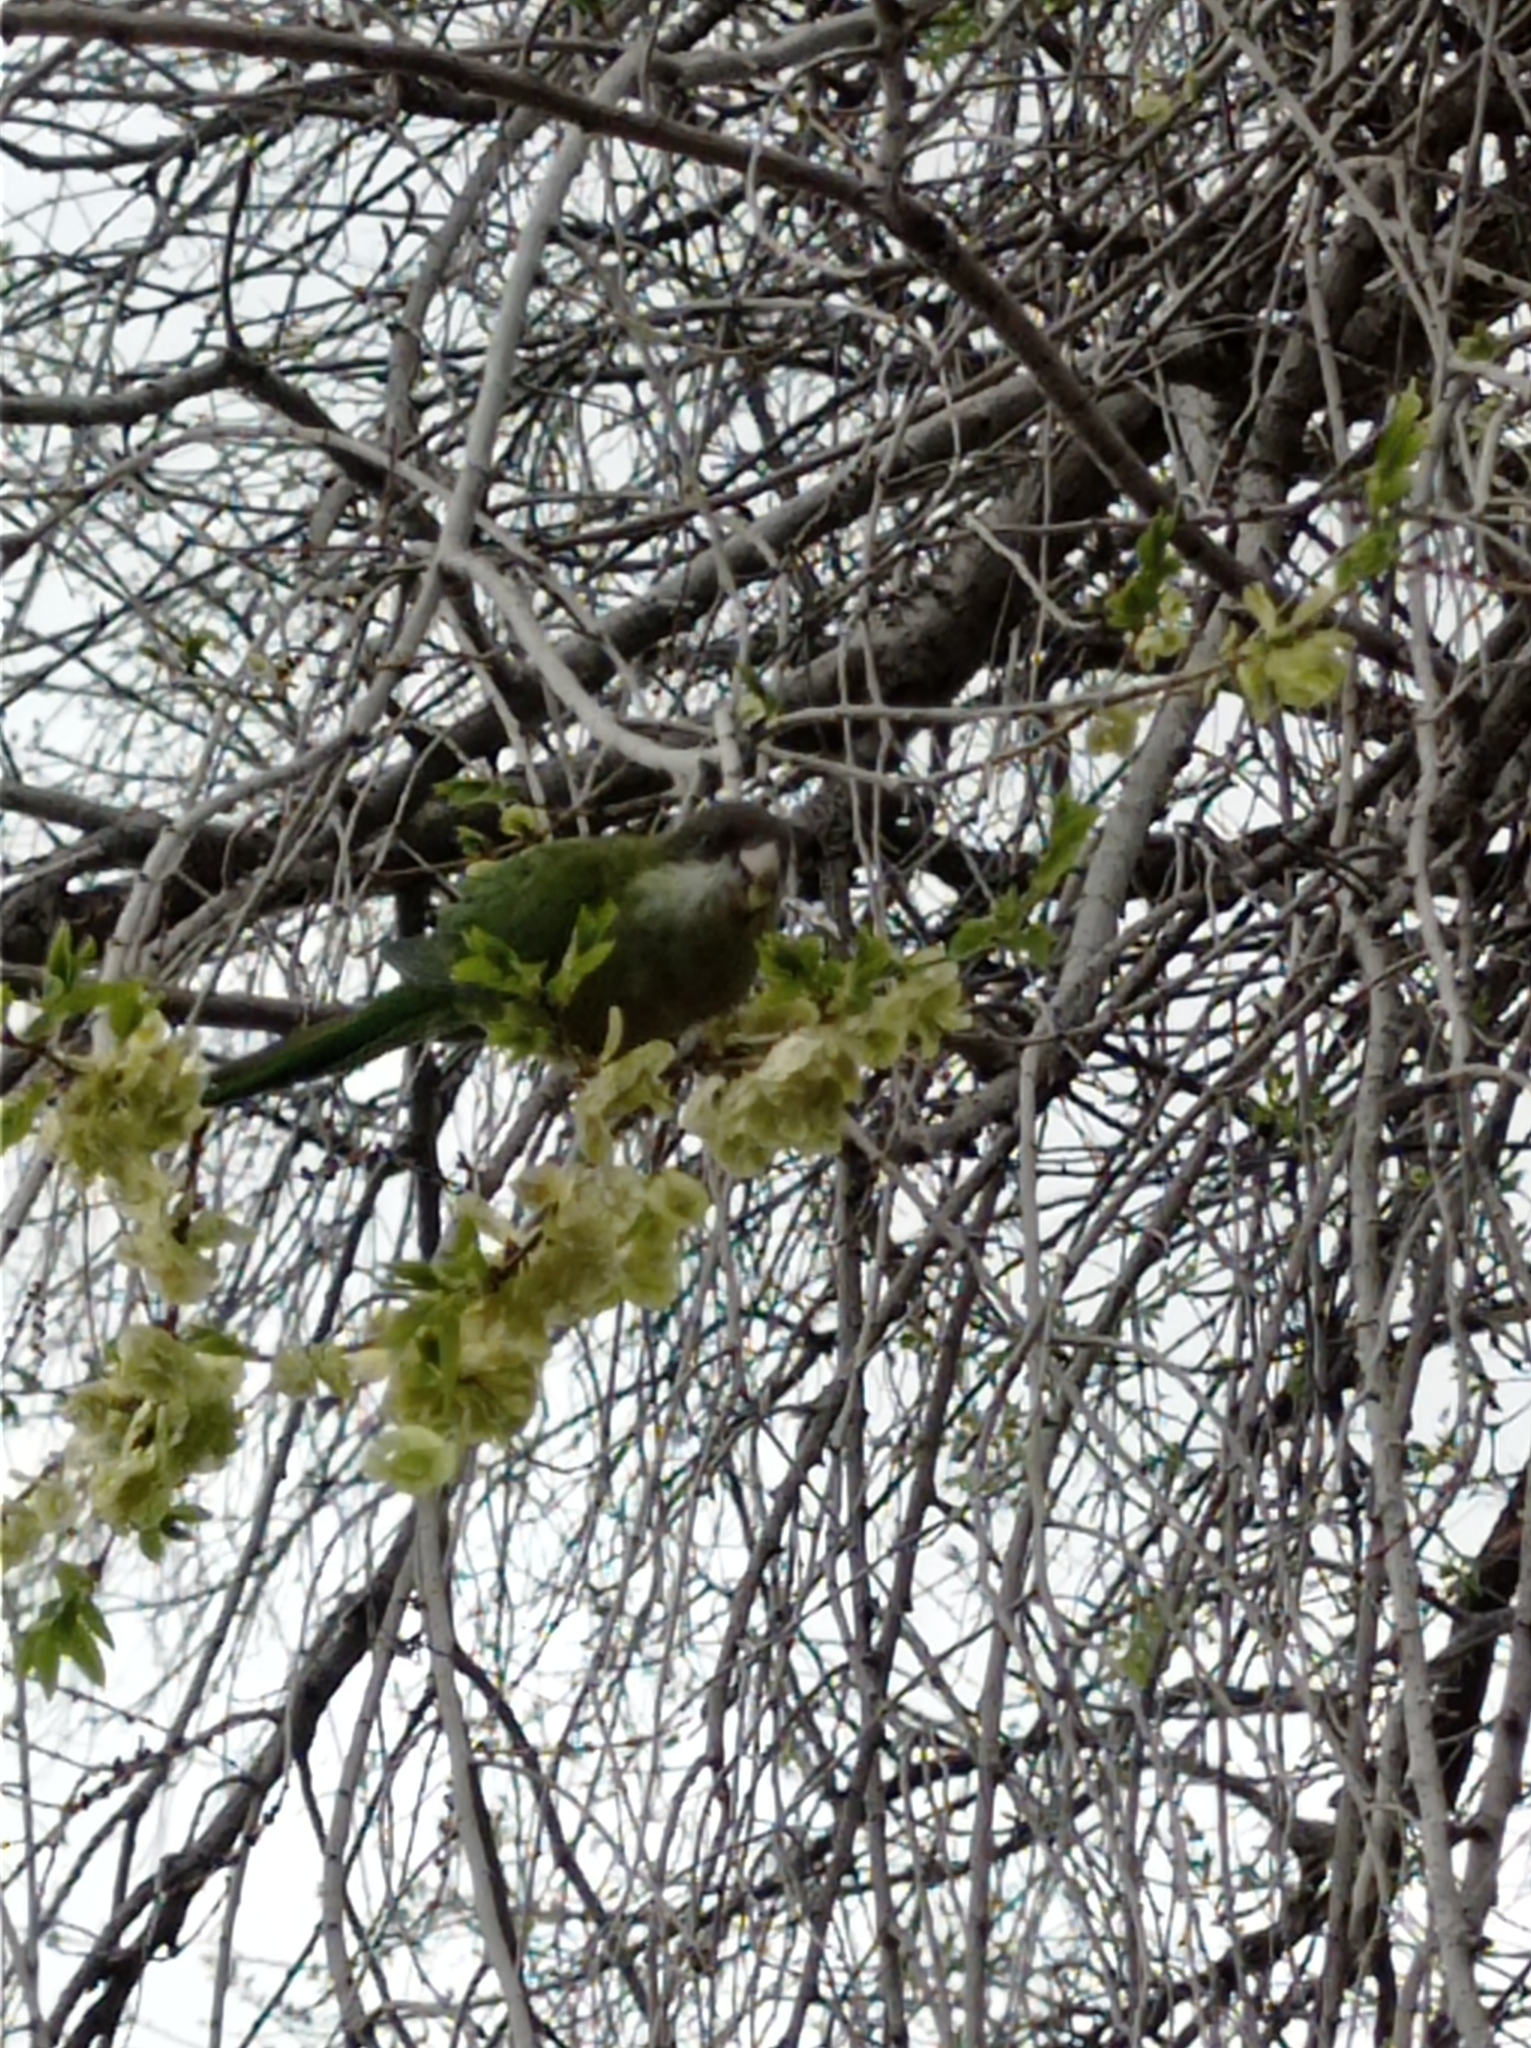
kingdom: Animalia
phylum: Chordata
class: Aves
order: Psittaciformes
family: Psittacidae
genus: Psilopsiagon
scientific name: Psilopsiagon aymara
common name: Grey-hooded parakeet
